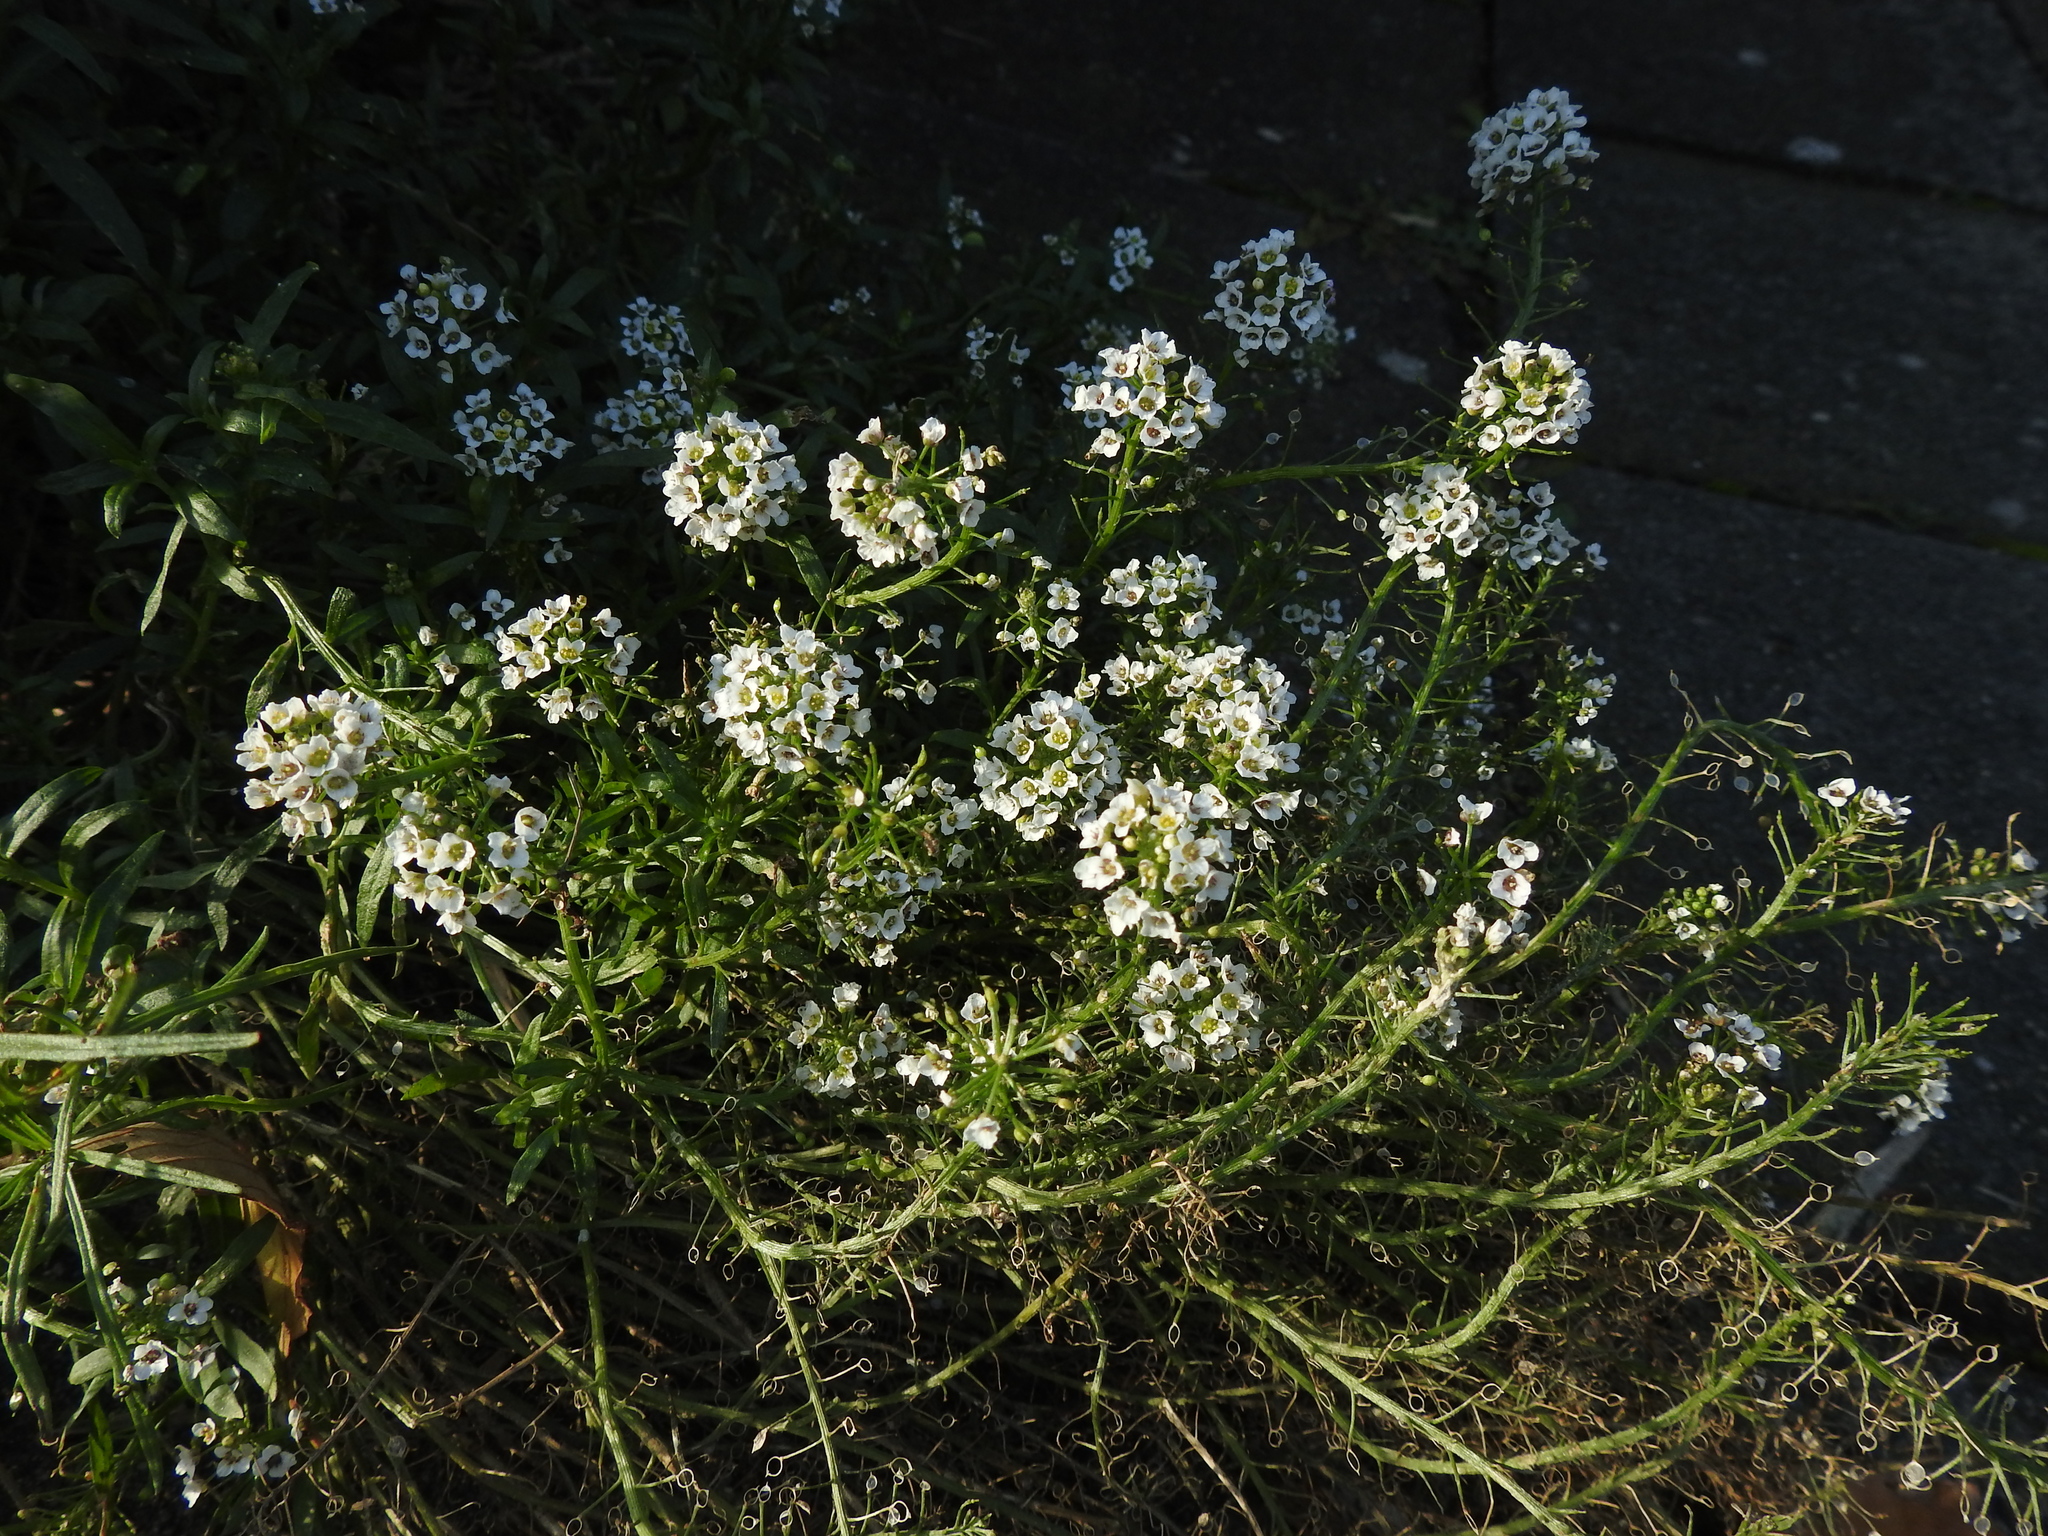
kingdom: Plantae
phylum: Tracheophyta
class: Magnoliopsida
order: Brassicales
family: Brassicaceae
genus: Lobularia
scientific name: Lobularia maritima
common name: Sweet alison
